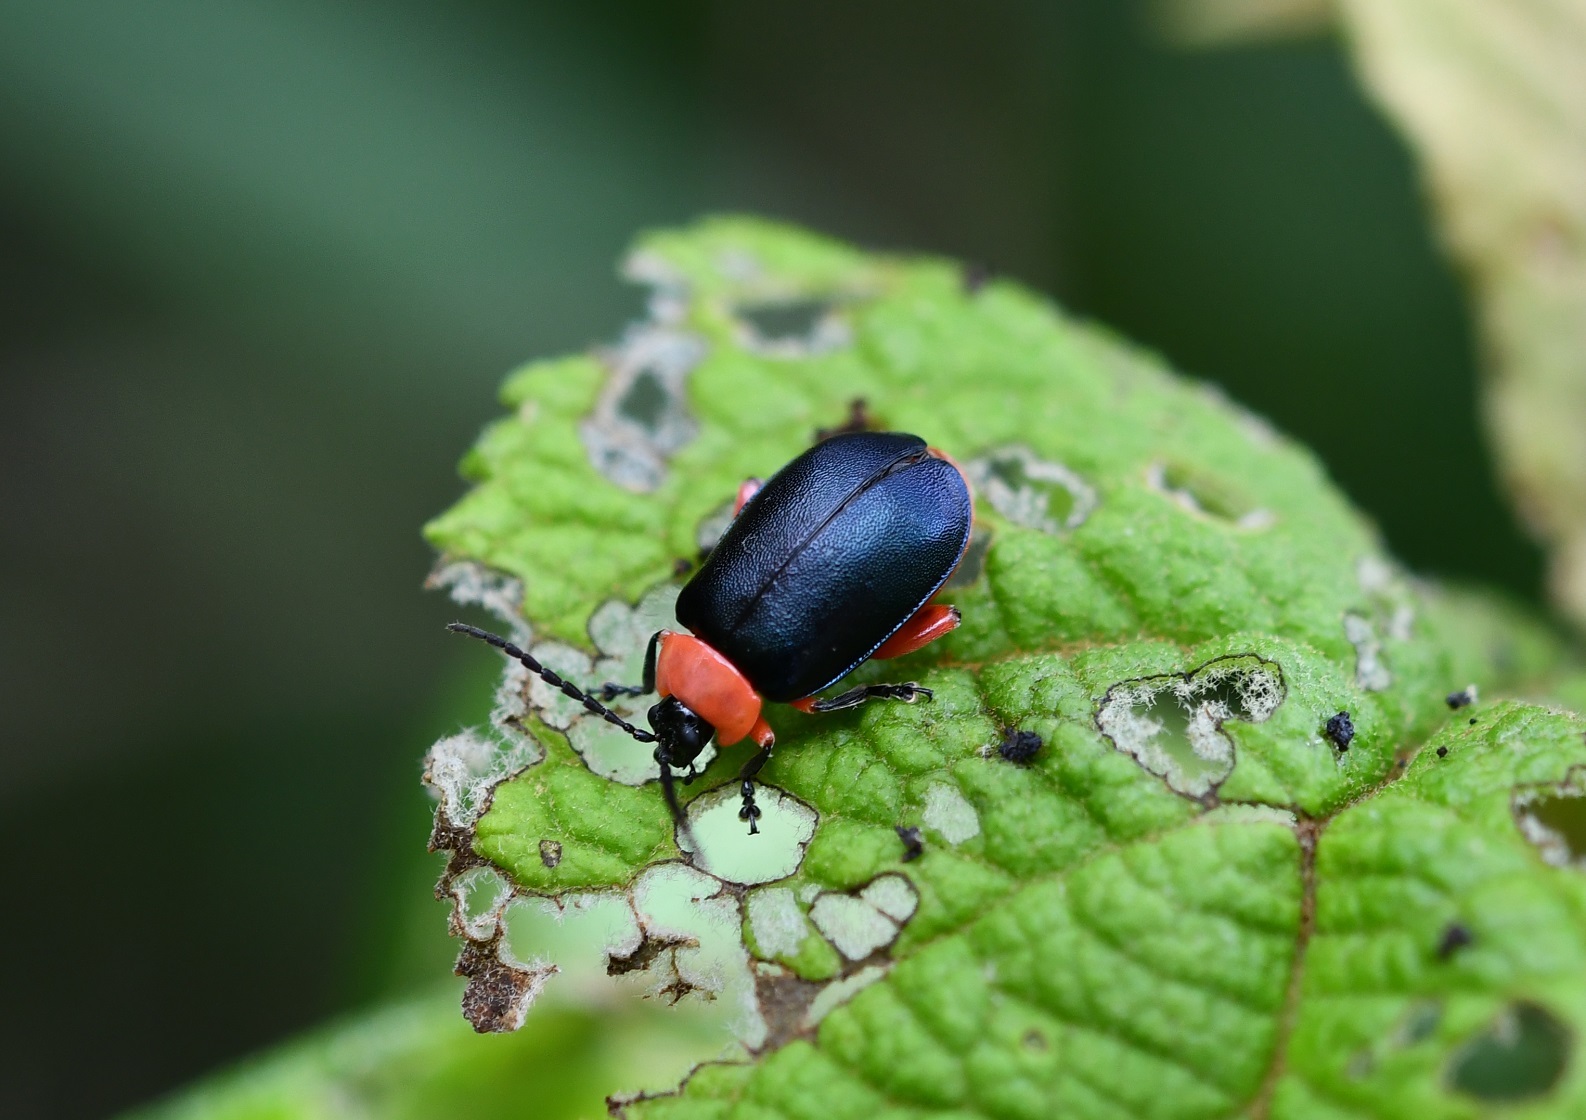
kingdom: Animalia
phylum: Arthropoda
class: Insecta
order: Coleoptera
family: Chrysomelidae
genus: Asphaera
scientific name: Asphaera abdominalis
